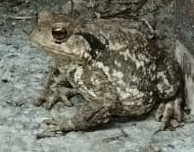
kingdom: Animalia
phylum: Chordata
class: Amphibia
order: Anura
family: Bufonidae
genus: Bufo
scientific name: Bufo spinosus
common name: Western common toad
